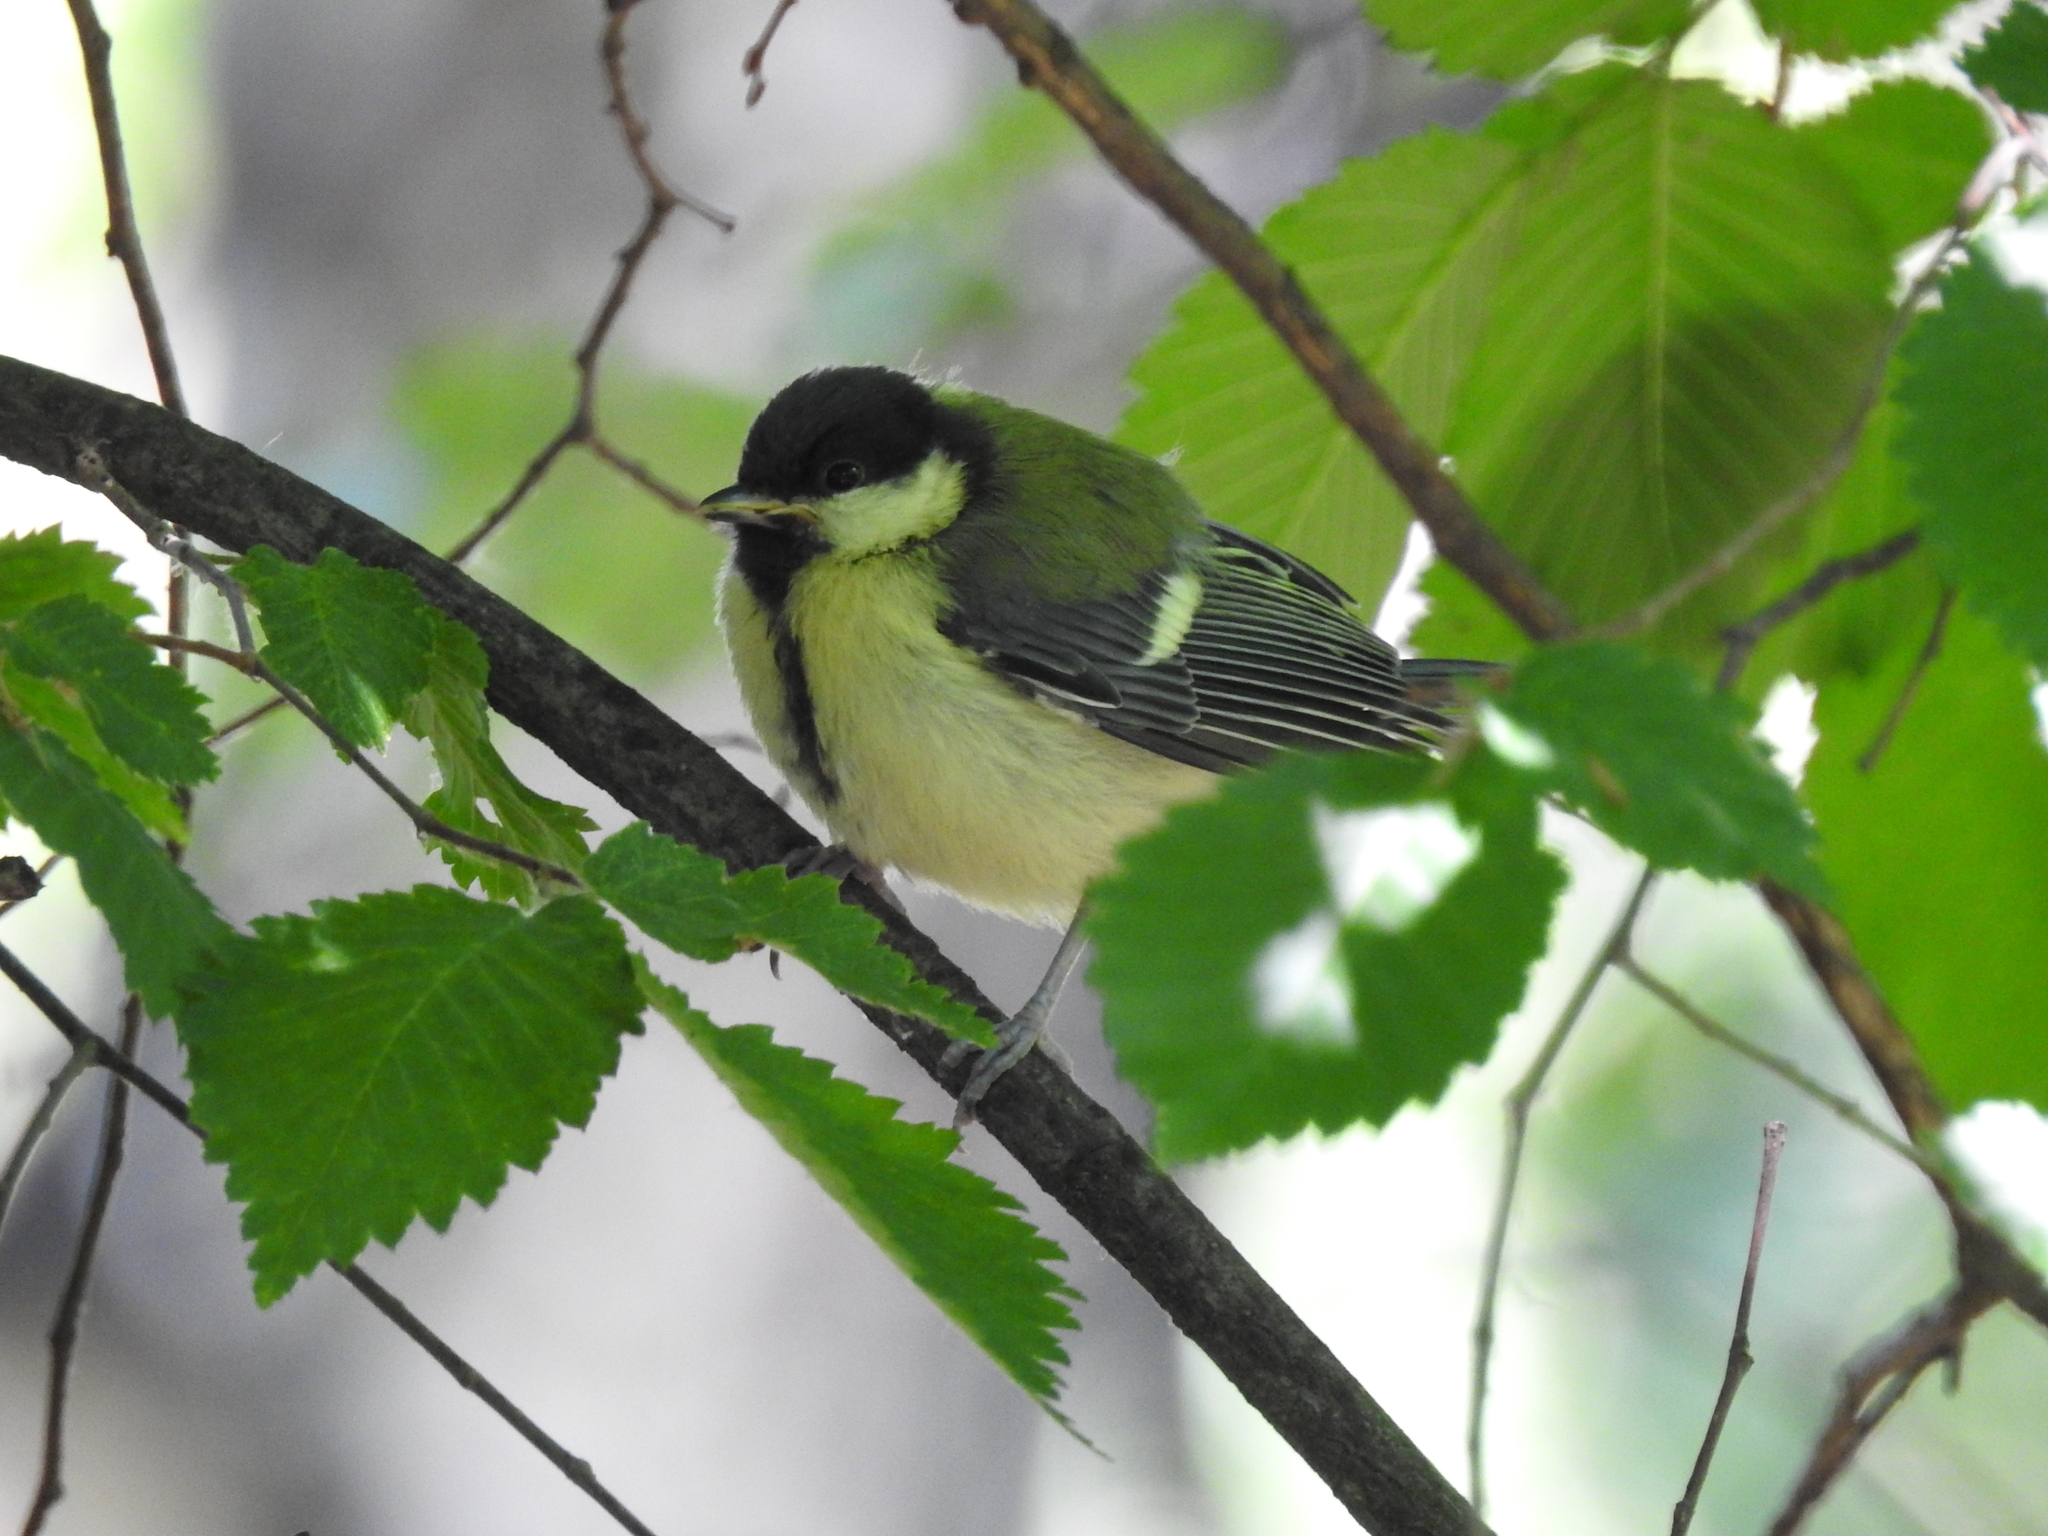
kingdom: Animalia
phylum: Chordata
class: Aves
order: Passeriformes
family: Paridae
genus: Parus
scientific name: Parus major
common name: Great tit
